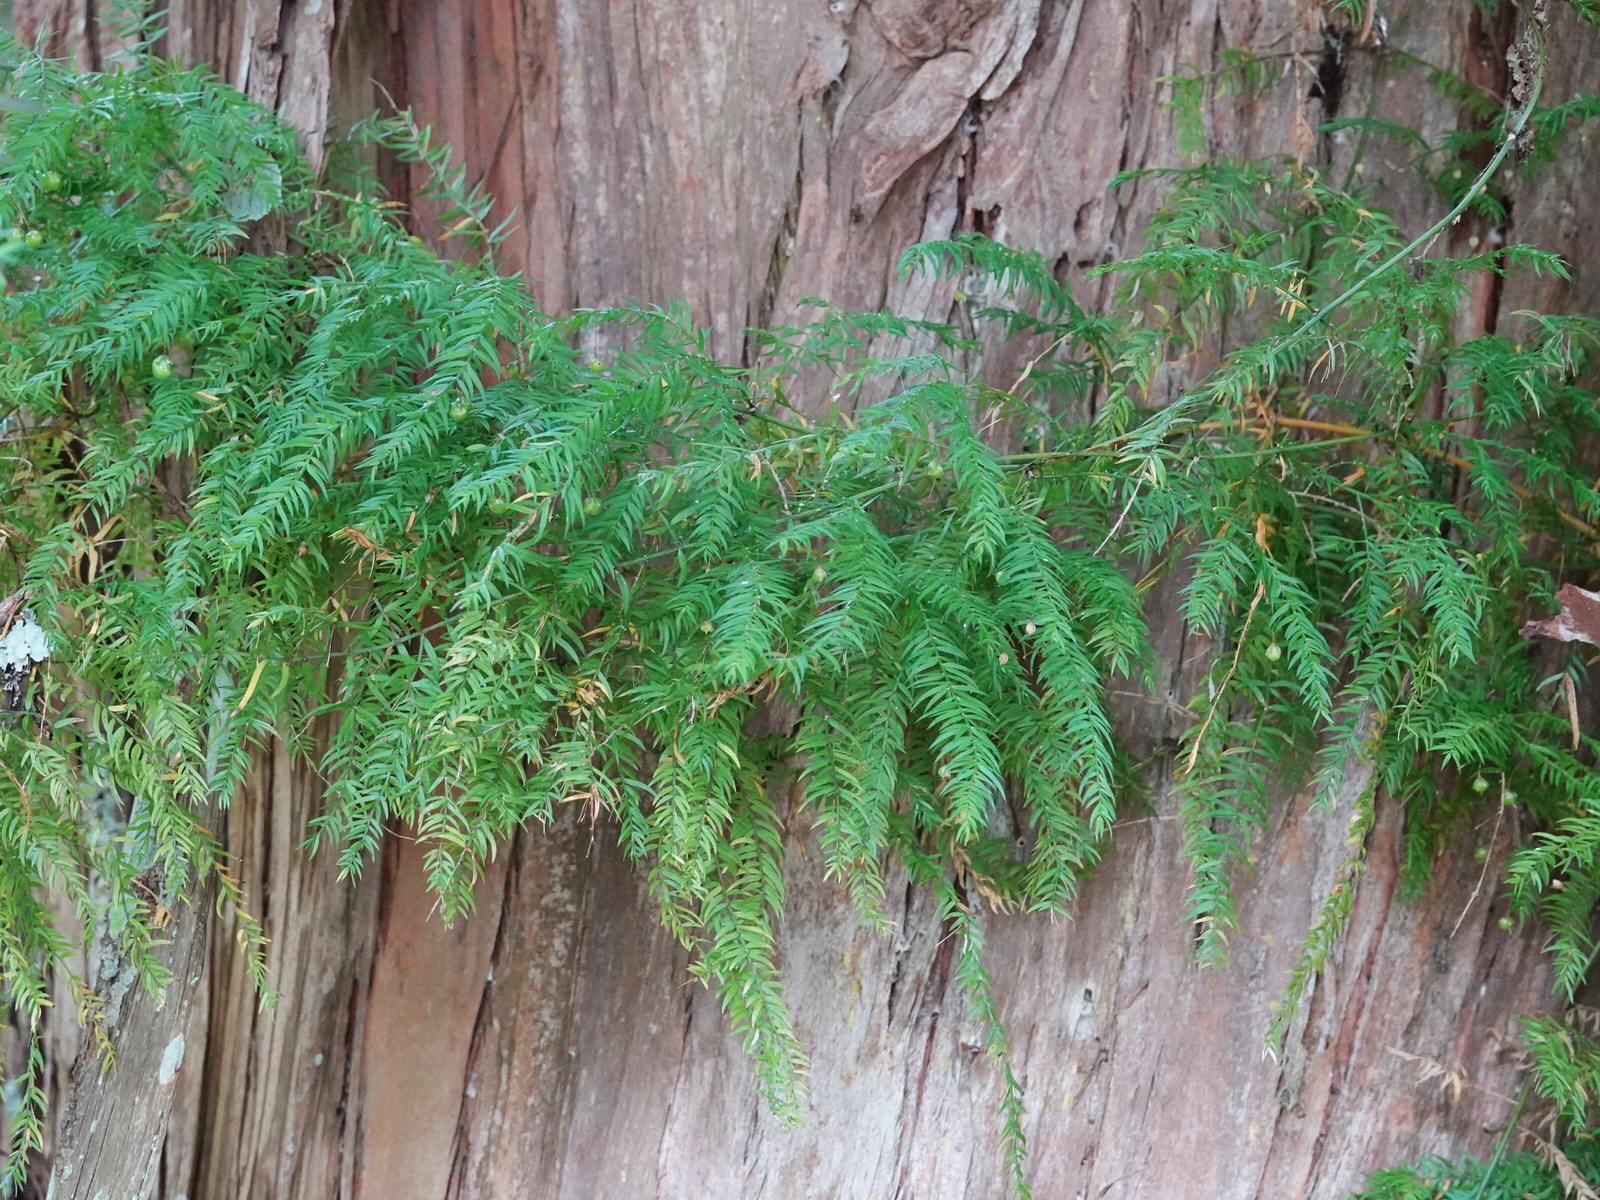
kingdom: Plantae
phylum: Tracheophyta
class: Liliopsida
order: Asparagales
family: Asparagaceae
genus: Asparagus
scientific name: Asparagus scandens
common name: Asparagus-fern
